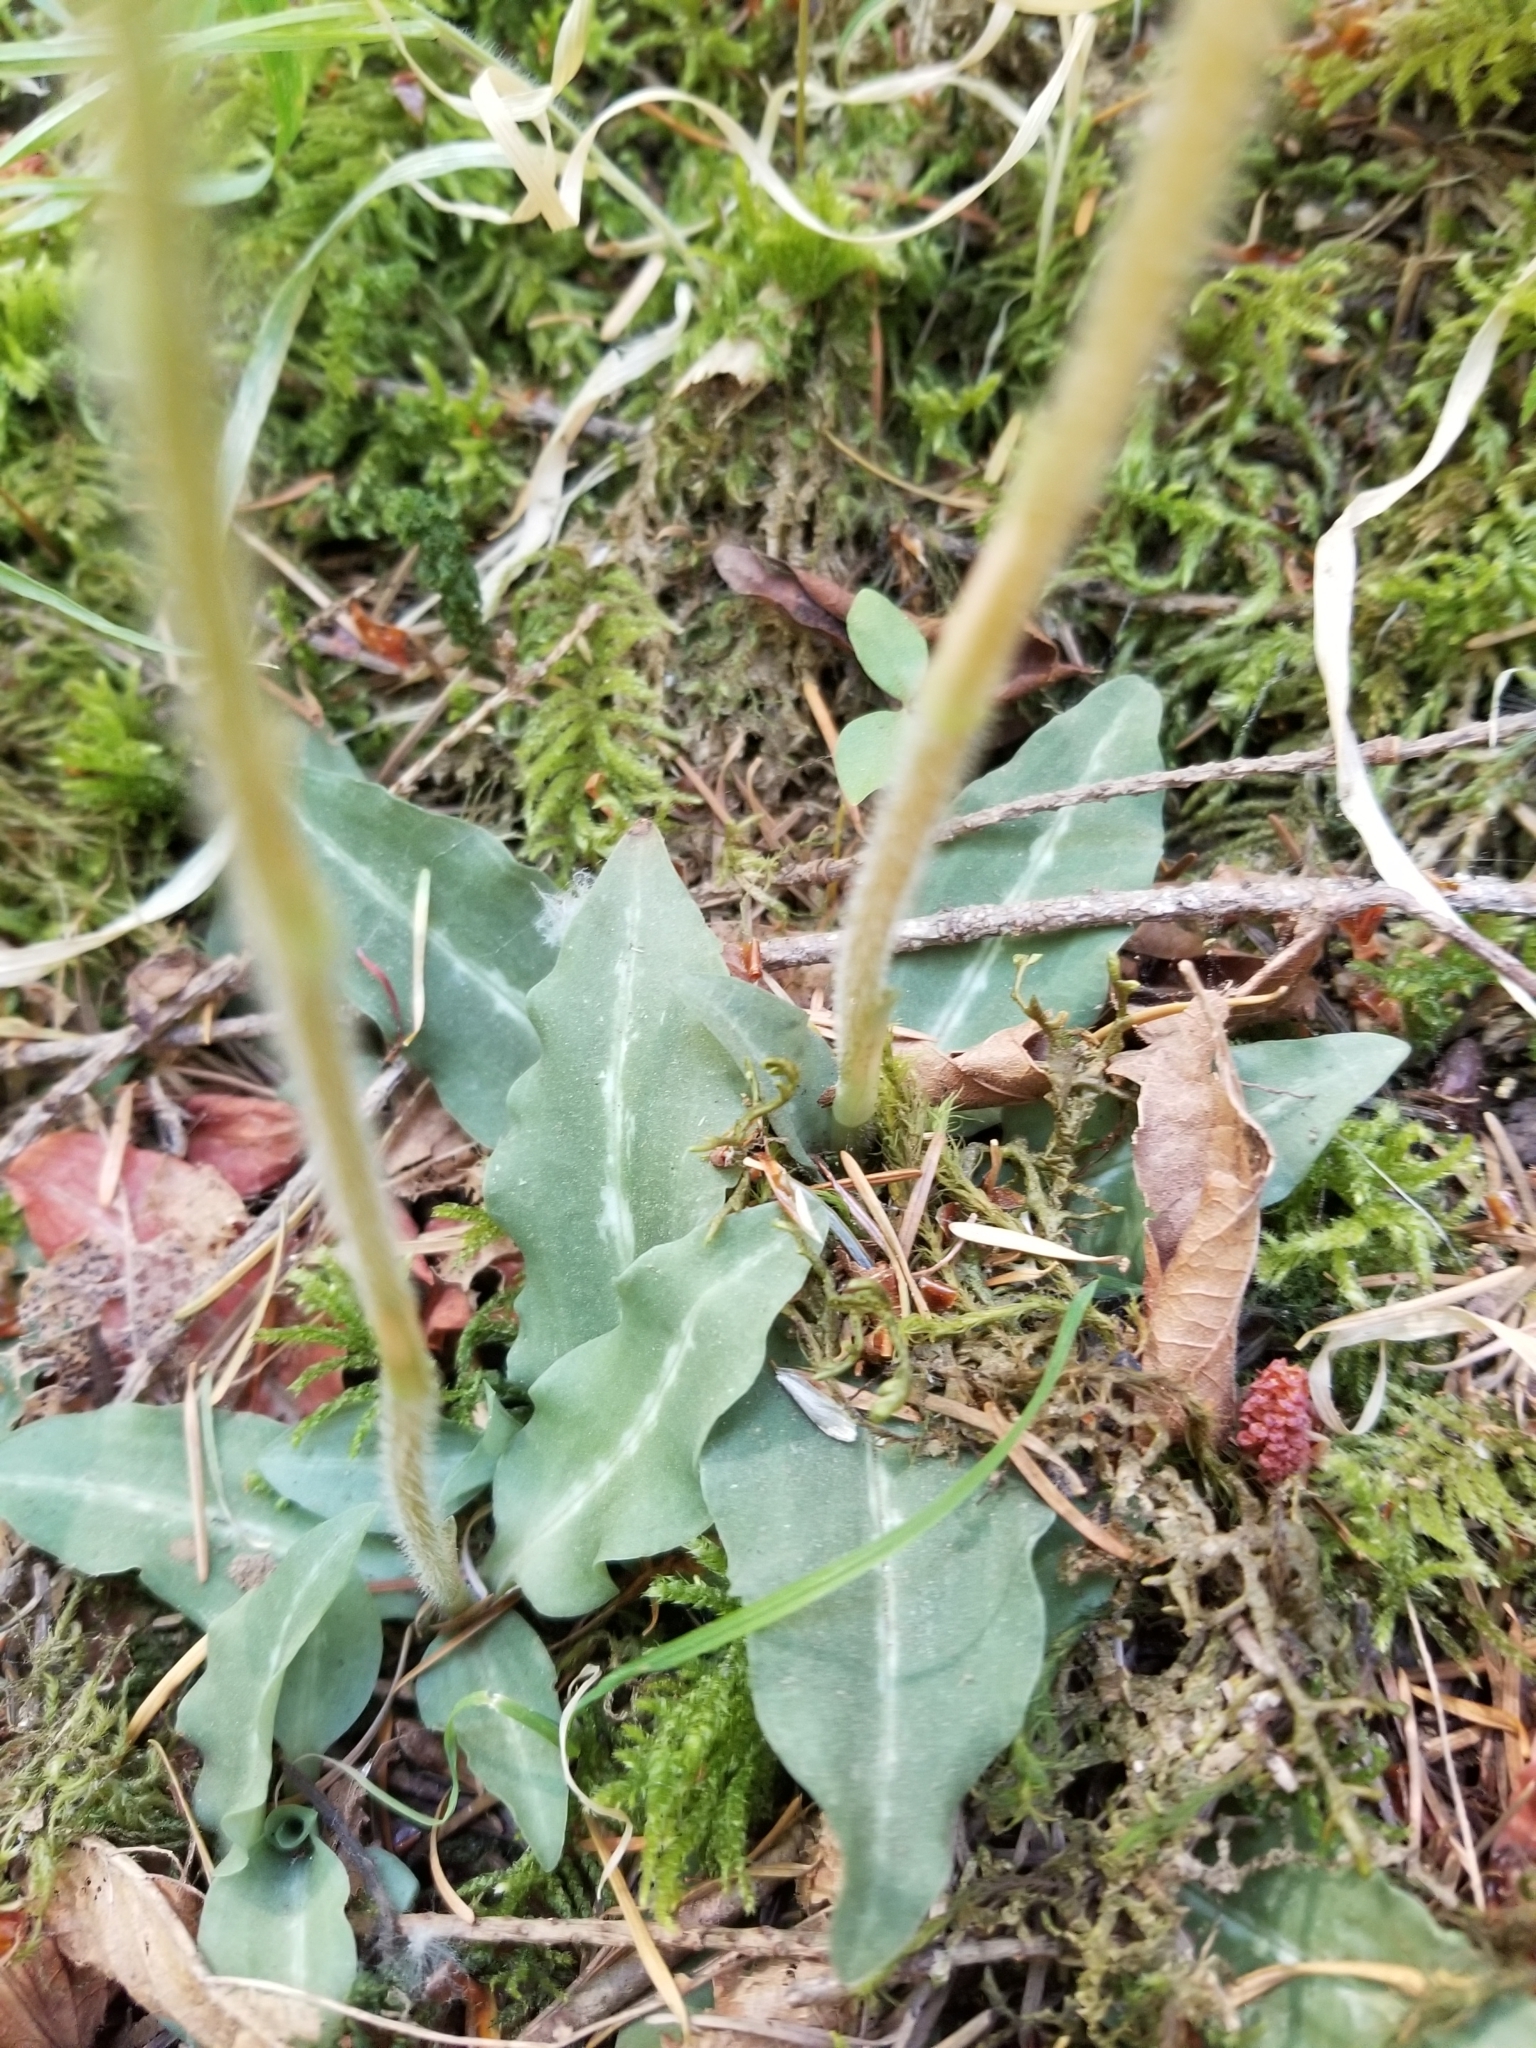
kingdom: Plantae
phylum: Tracheophyta
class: Liliopsida
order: Asparagales
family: Orchidaceae
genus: Goodyera
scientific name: Goodyera oblongifolia
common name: Giant rattlesnake-plantain
